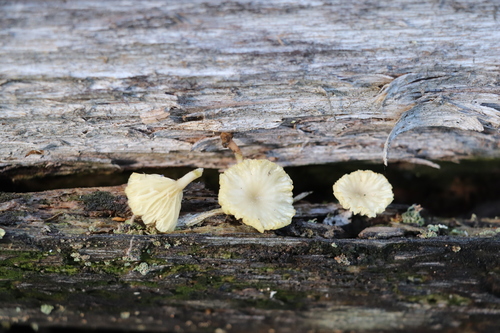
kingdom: Fungi
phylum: Basidiomycota
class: Agaricomycetes
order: Agaricales
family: Hygrophoraceae
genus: Lichenomphalia
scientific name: Lichenomphalia umbellifera
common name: Heath navel
